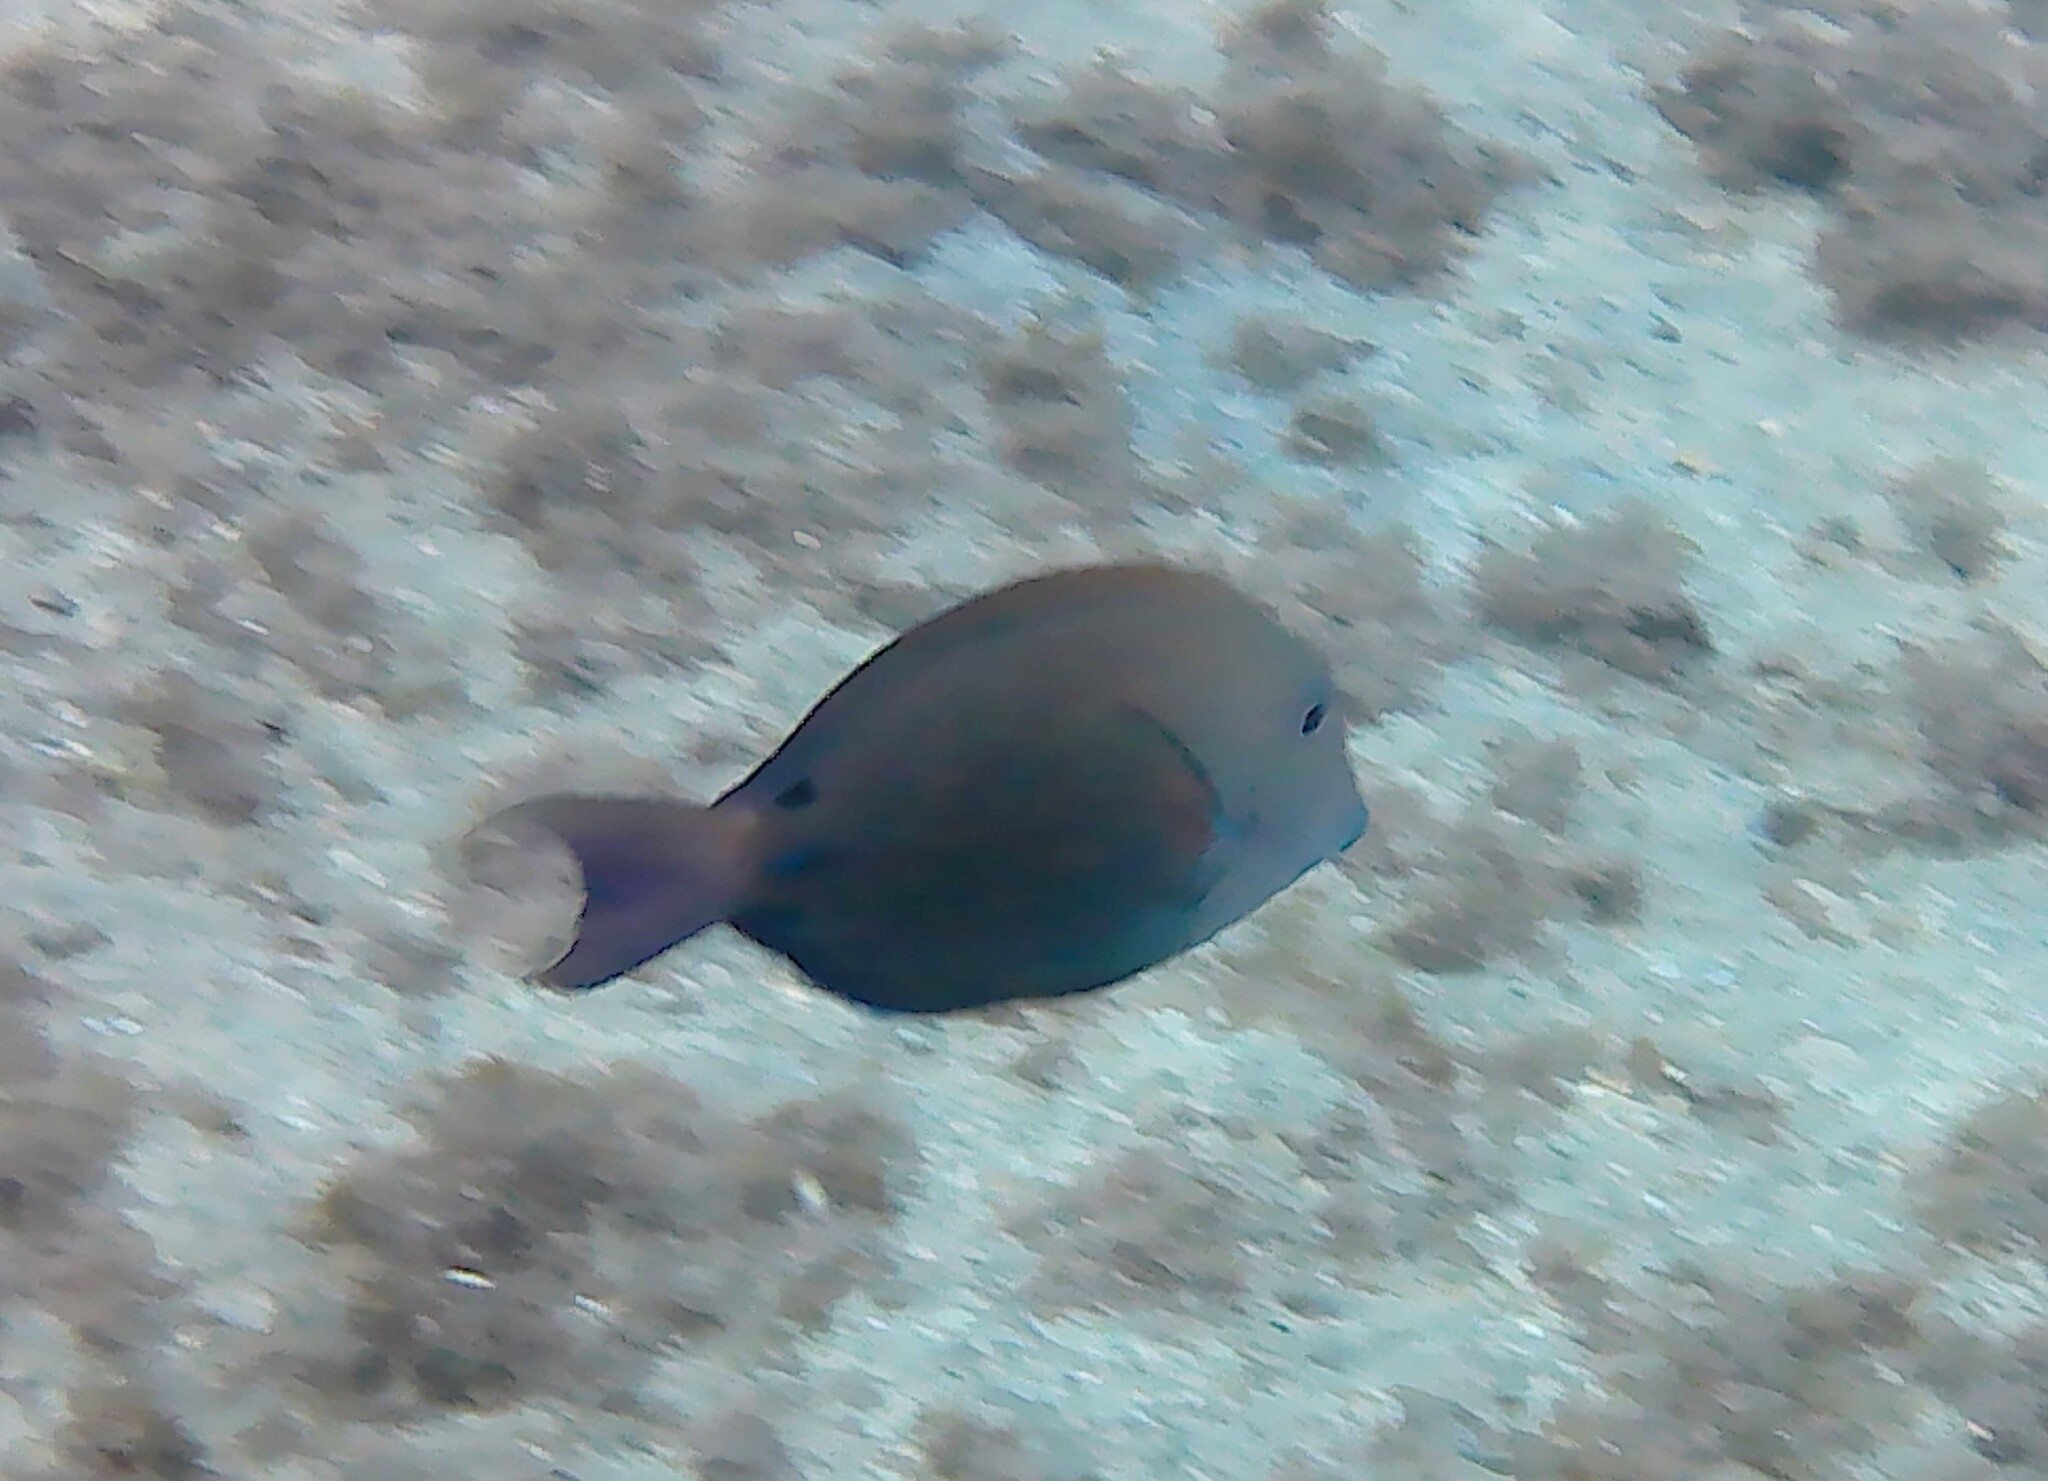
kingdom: Animalia
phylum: Chordata
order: Perciformes
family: Acanthuridae
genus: Acanthurus
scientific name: Acanthurus nigrofuscus
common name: Blackspot surgeonfish
